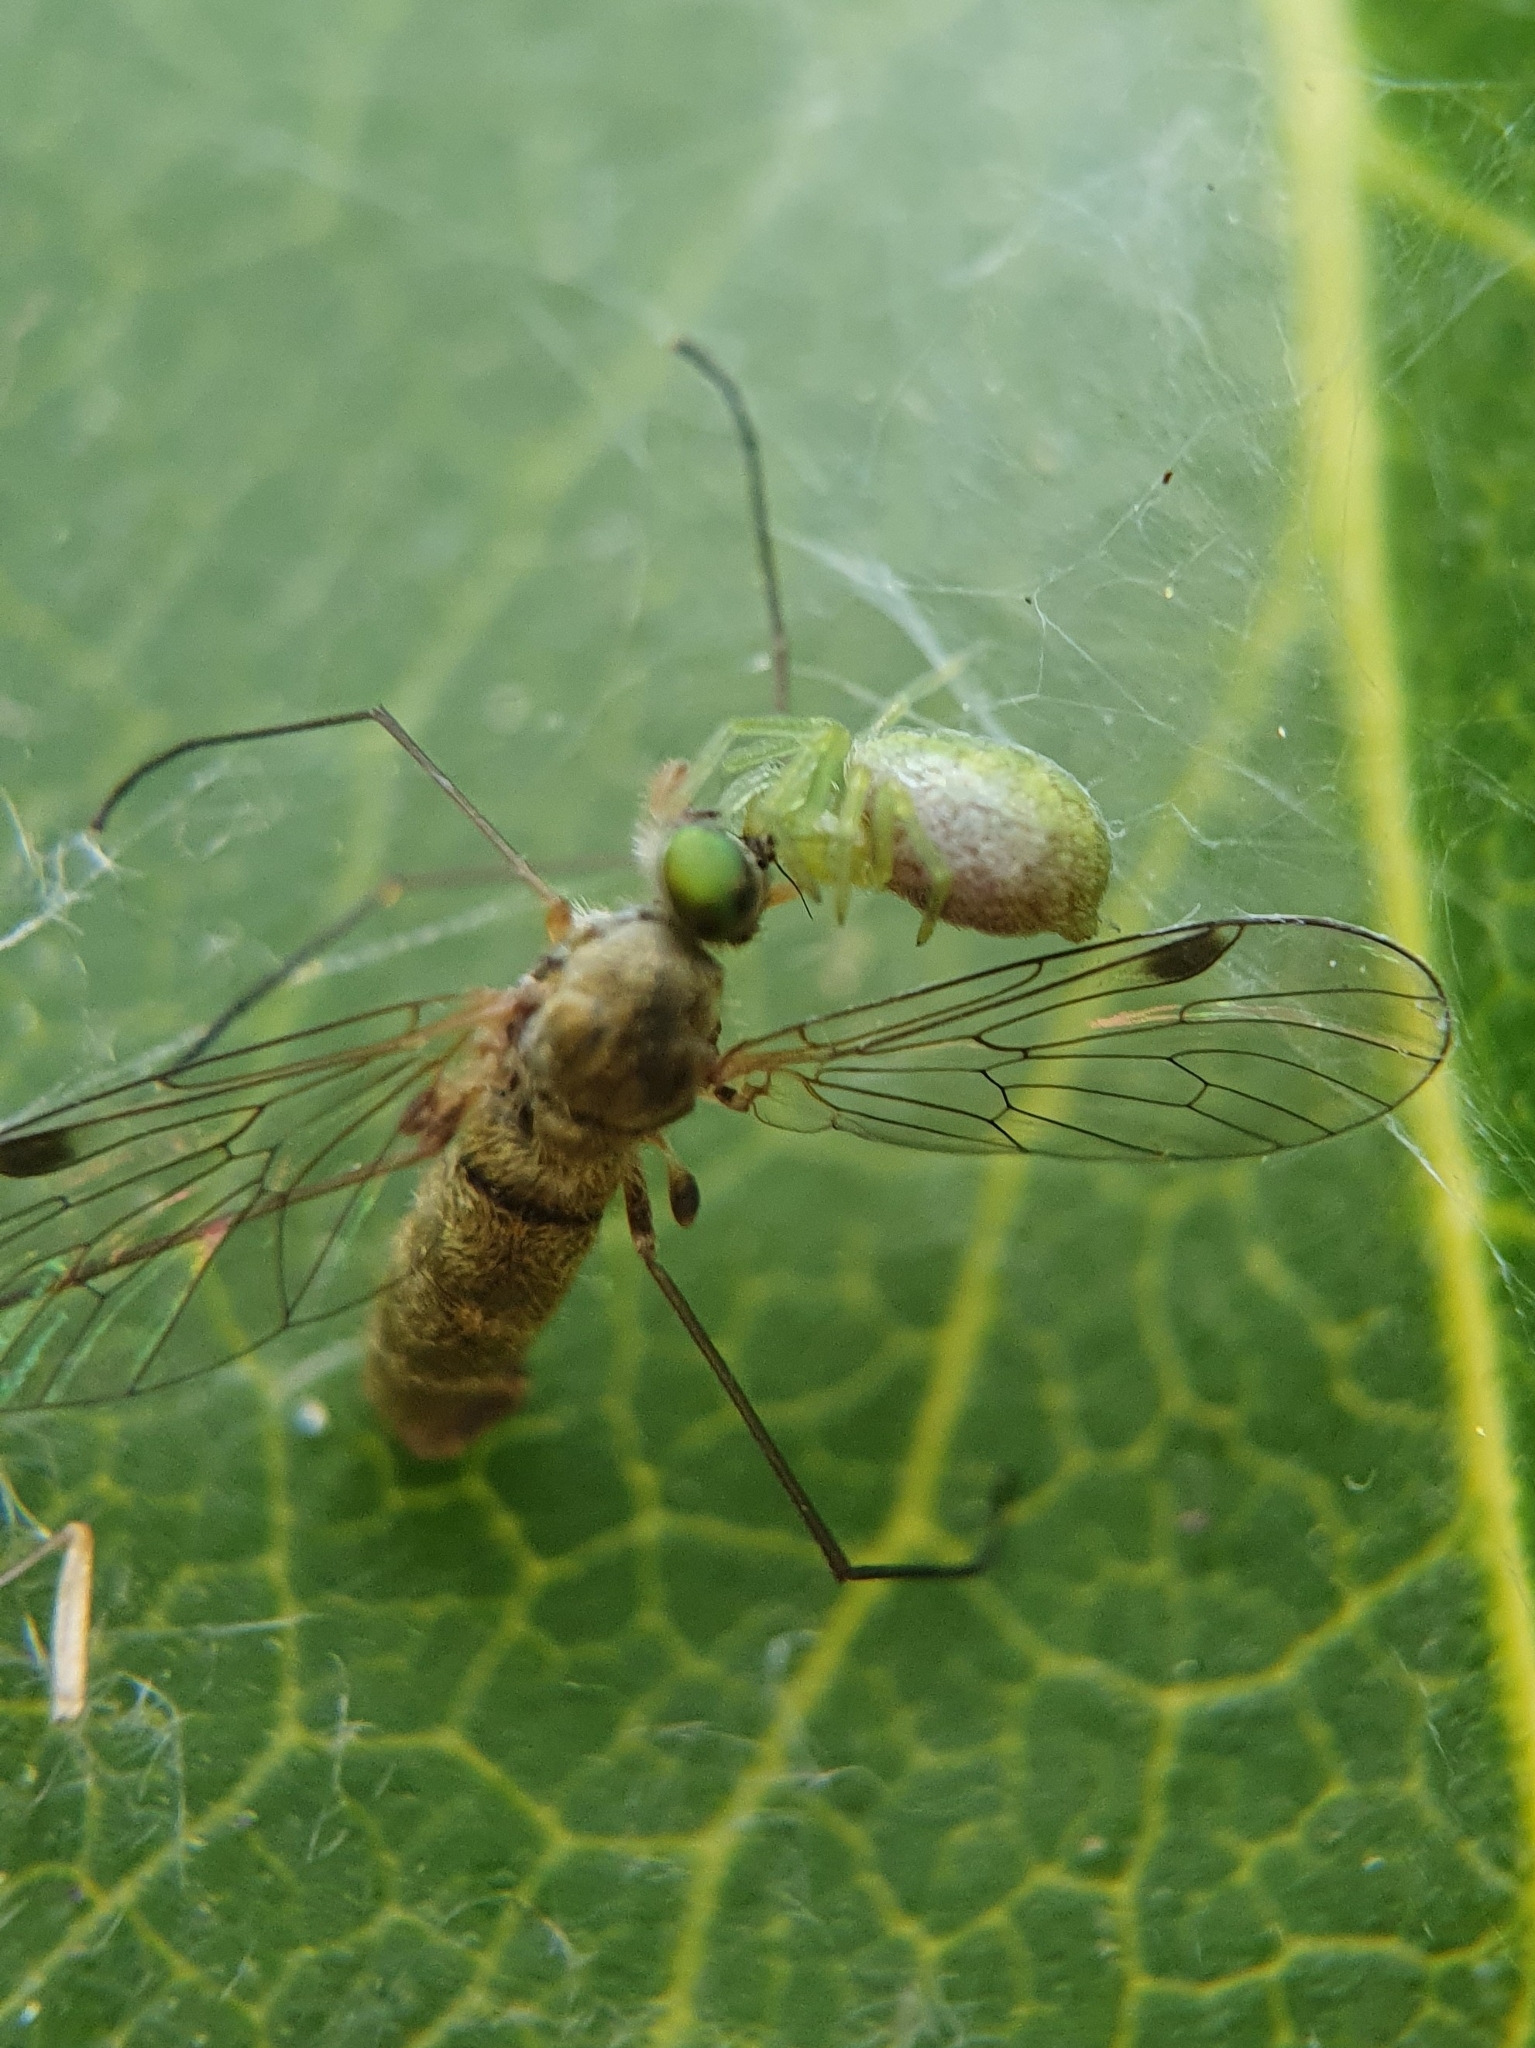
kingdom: Animalia
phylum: Arthropoda
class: Arachnida
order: Araneae
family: Dictynidae
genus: Nigma
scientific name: Nigma walckenaeri
